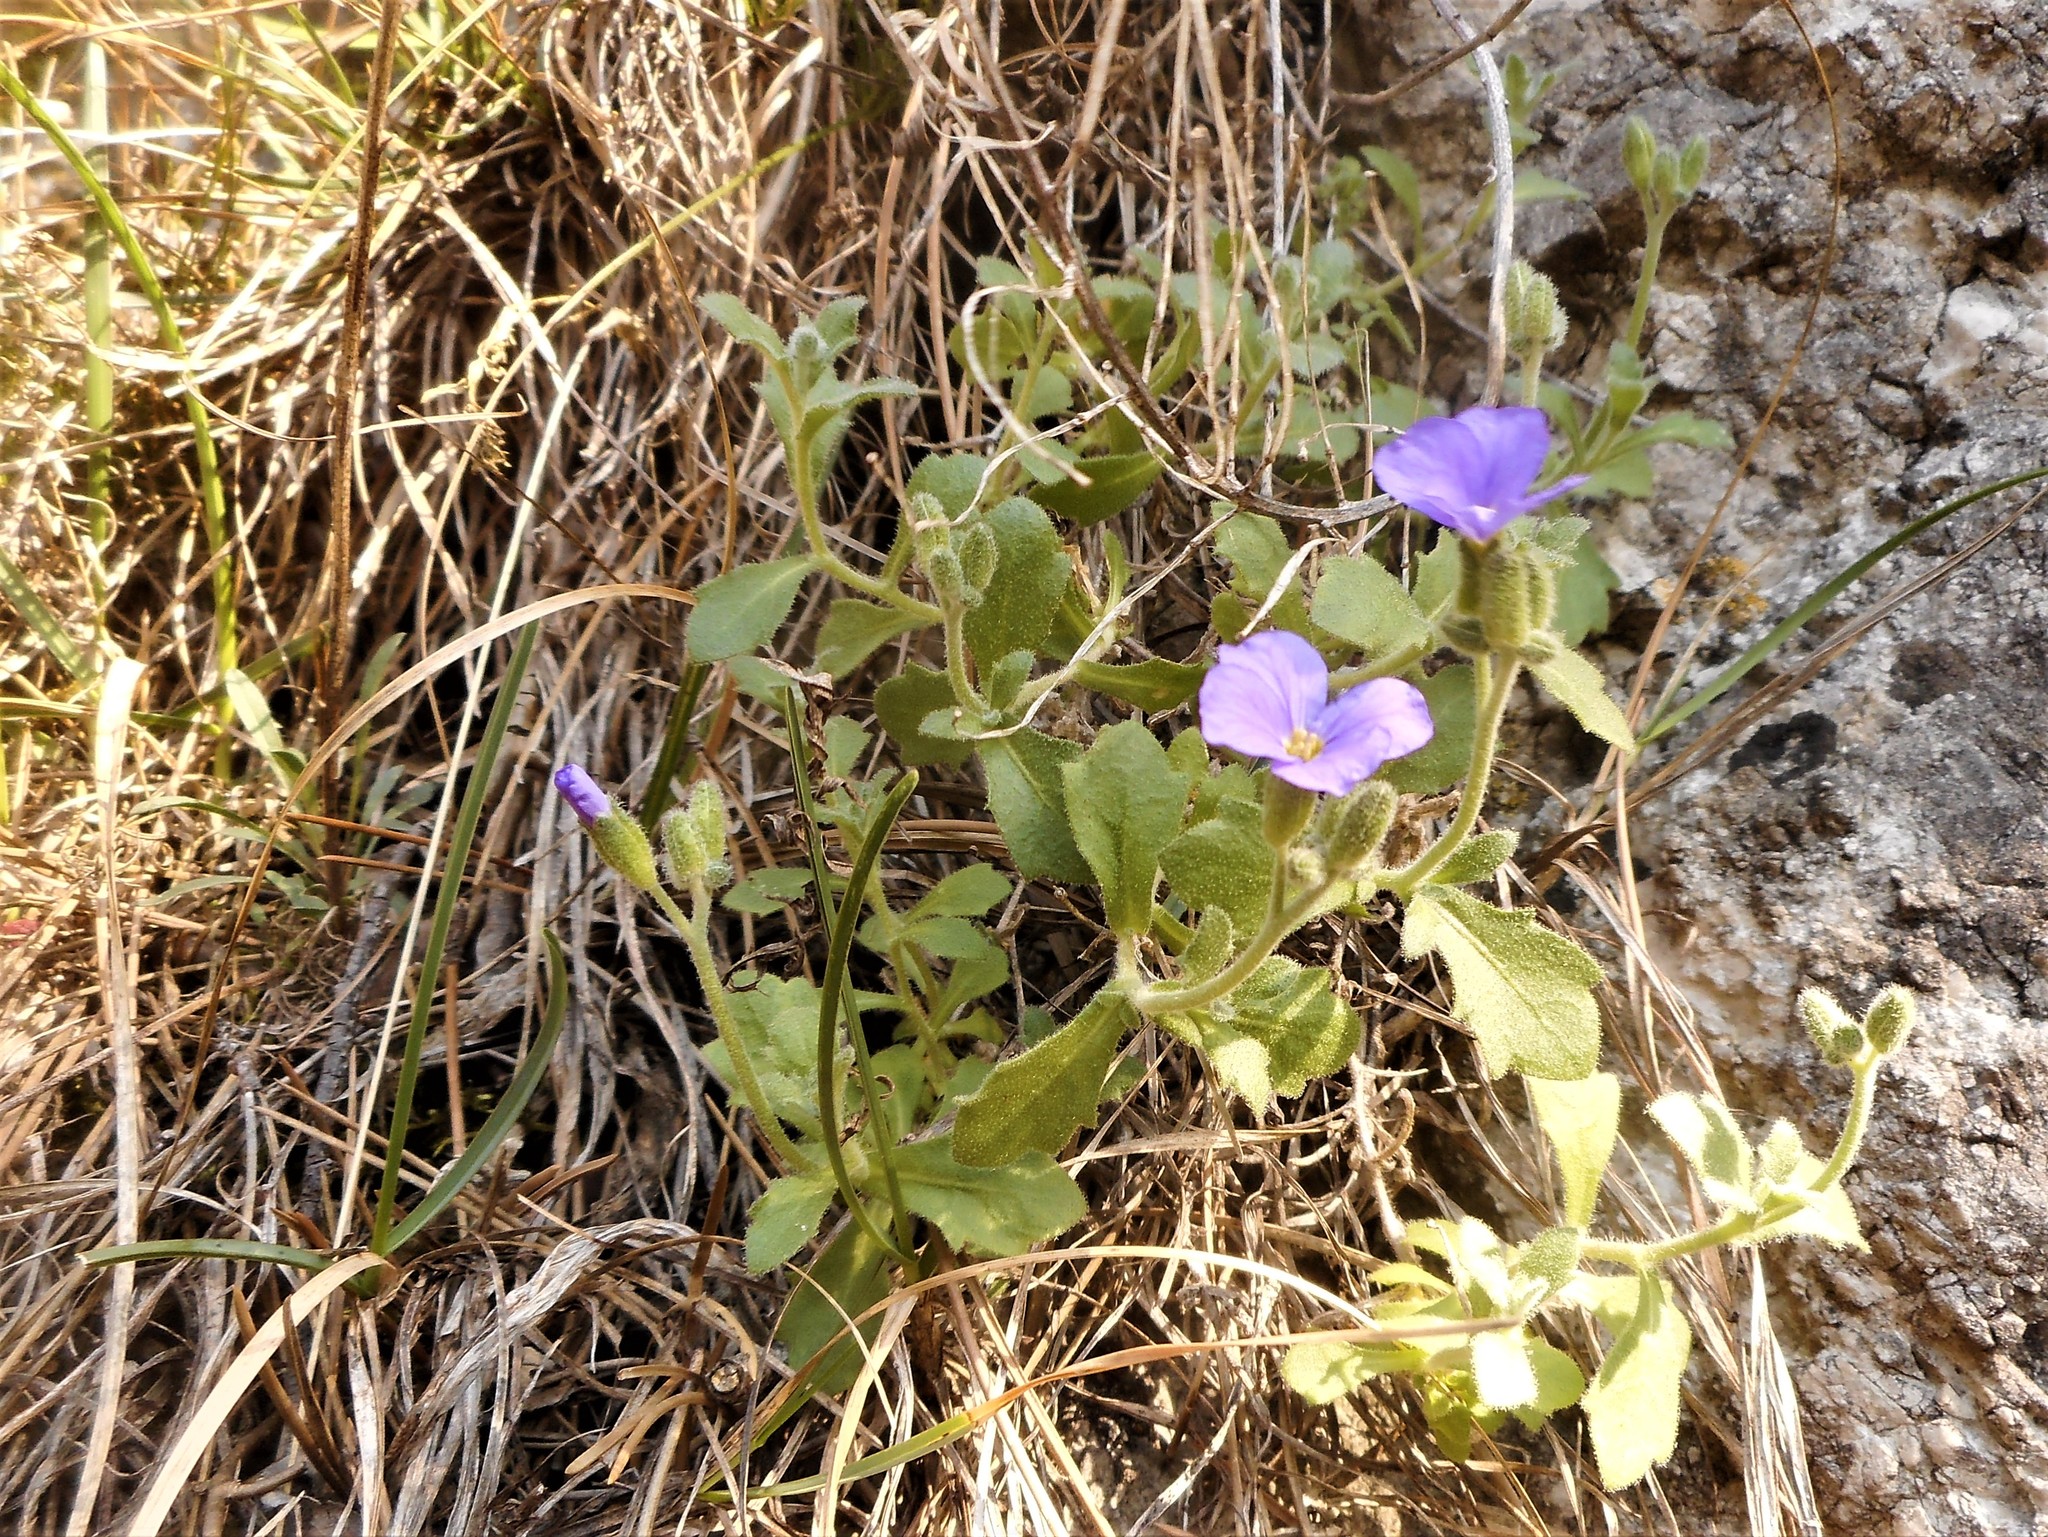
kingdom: Plantae
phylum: Tracheophyta
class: Magnoliopsida
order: Brassicales
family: Brassicaceae
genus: Aubrieta
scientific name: Aubrieta deltoidea
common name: Aubretia
